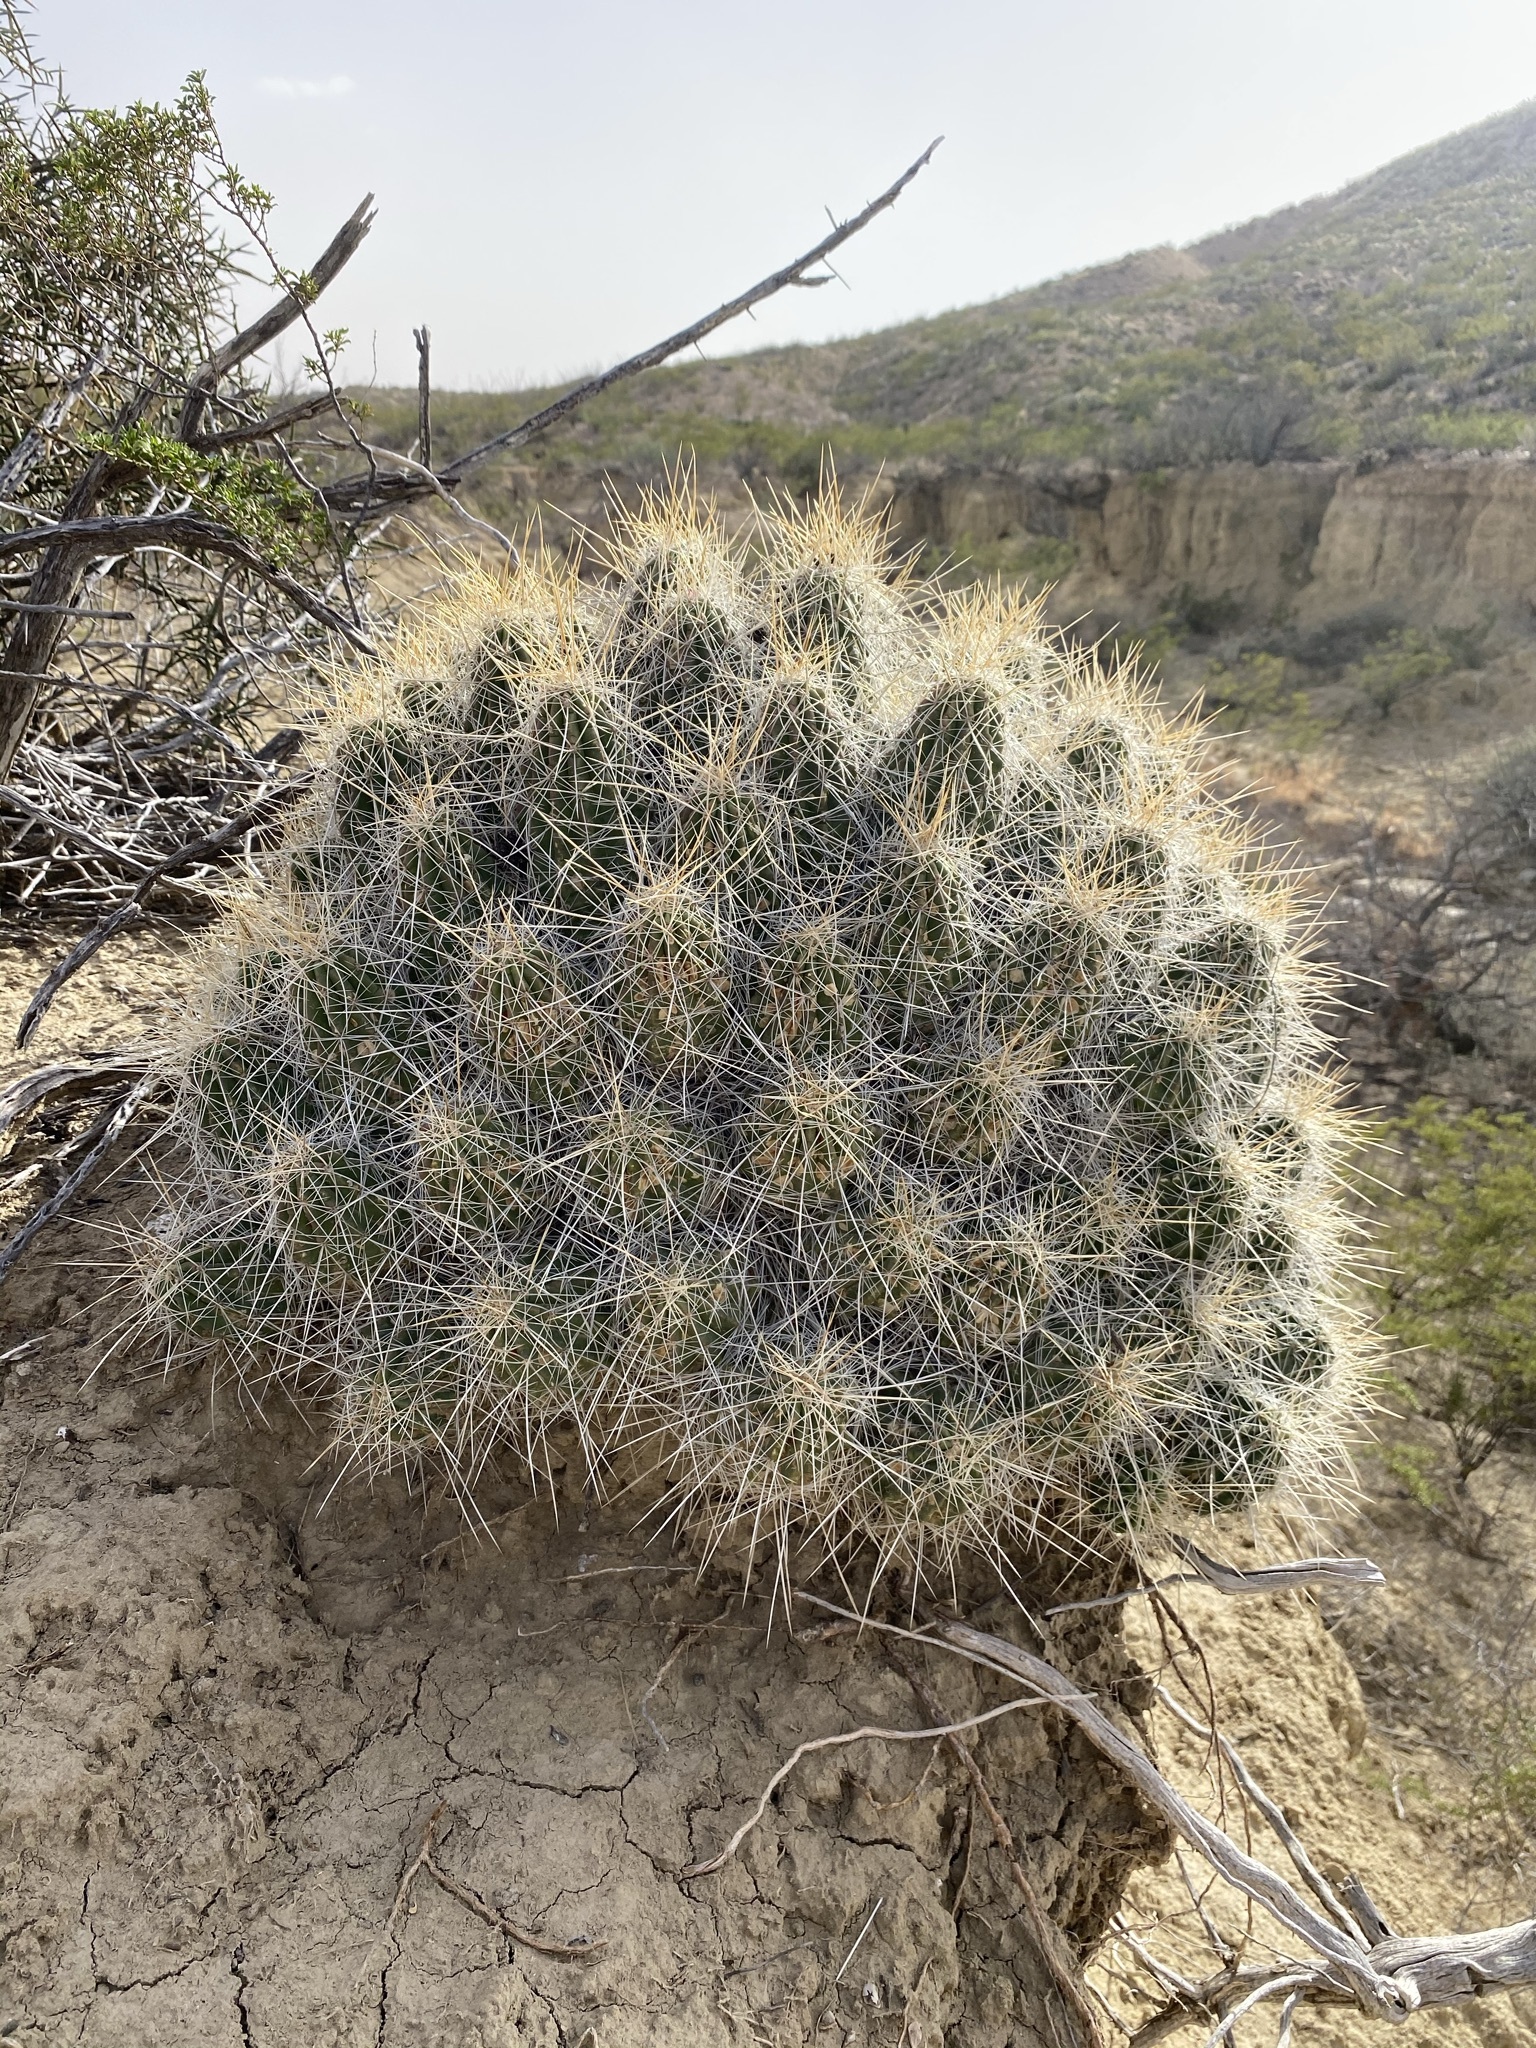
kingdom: Plantae
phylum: Tracheophyta
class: Magnoliopsida
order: Caryophyllales
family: Cactaceae
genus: Echinocereus
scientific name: Echinocereus stramineus
